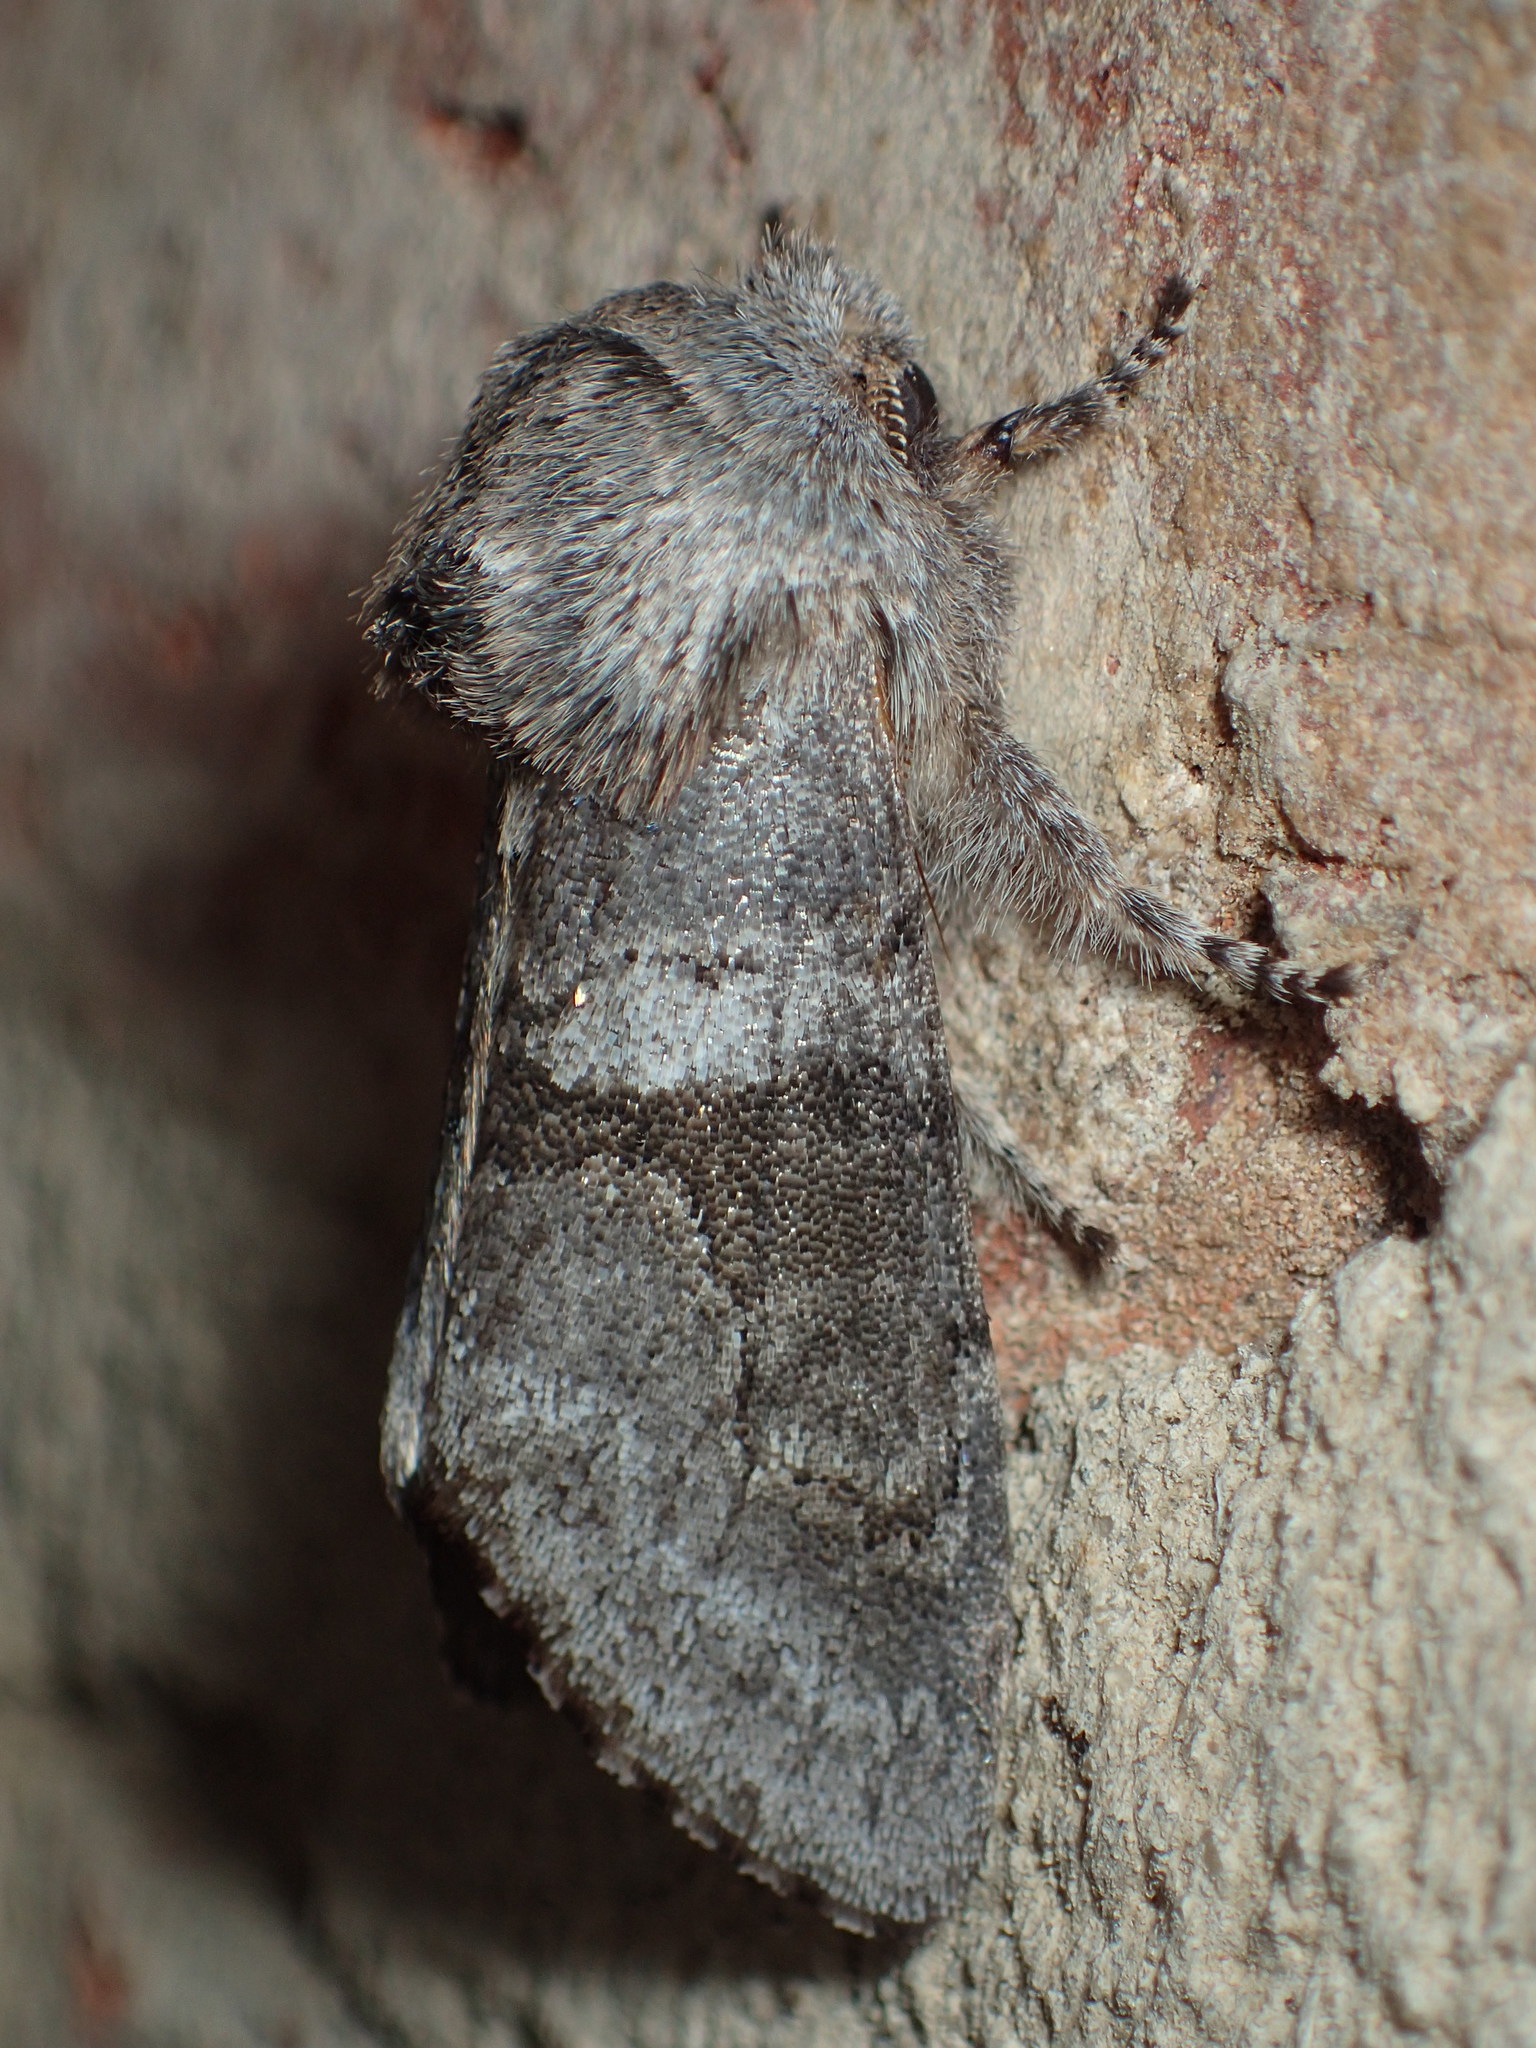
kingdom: Animalia
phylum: Arthropoda
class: Insecta
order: Lepidoptera
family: Noctuidae
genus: Psaphida
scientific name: Psaphida grandis
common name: Gray sallow
